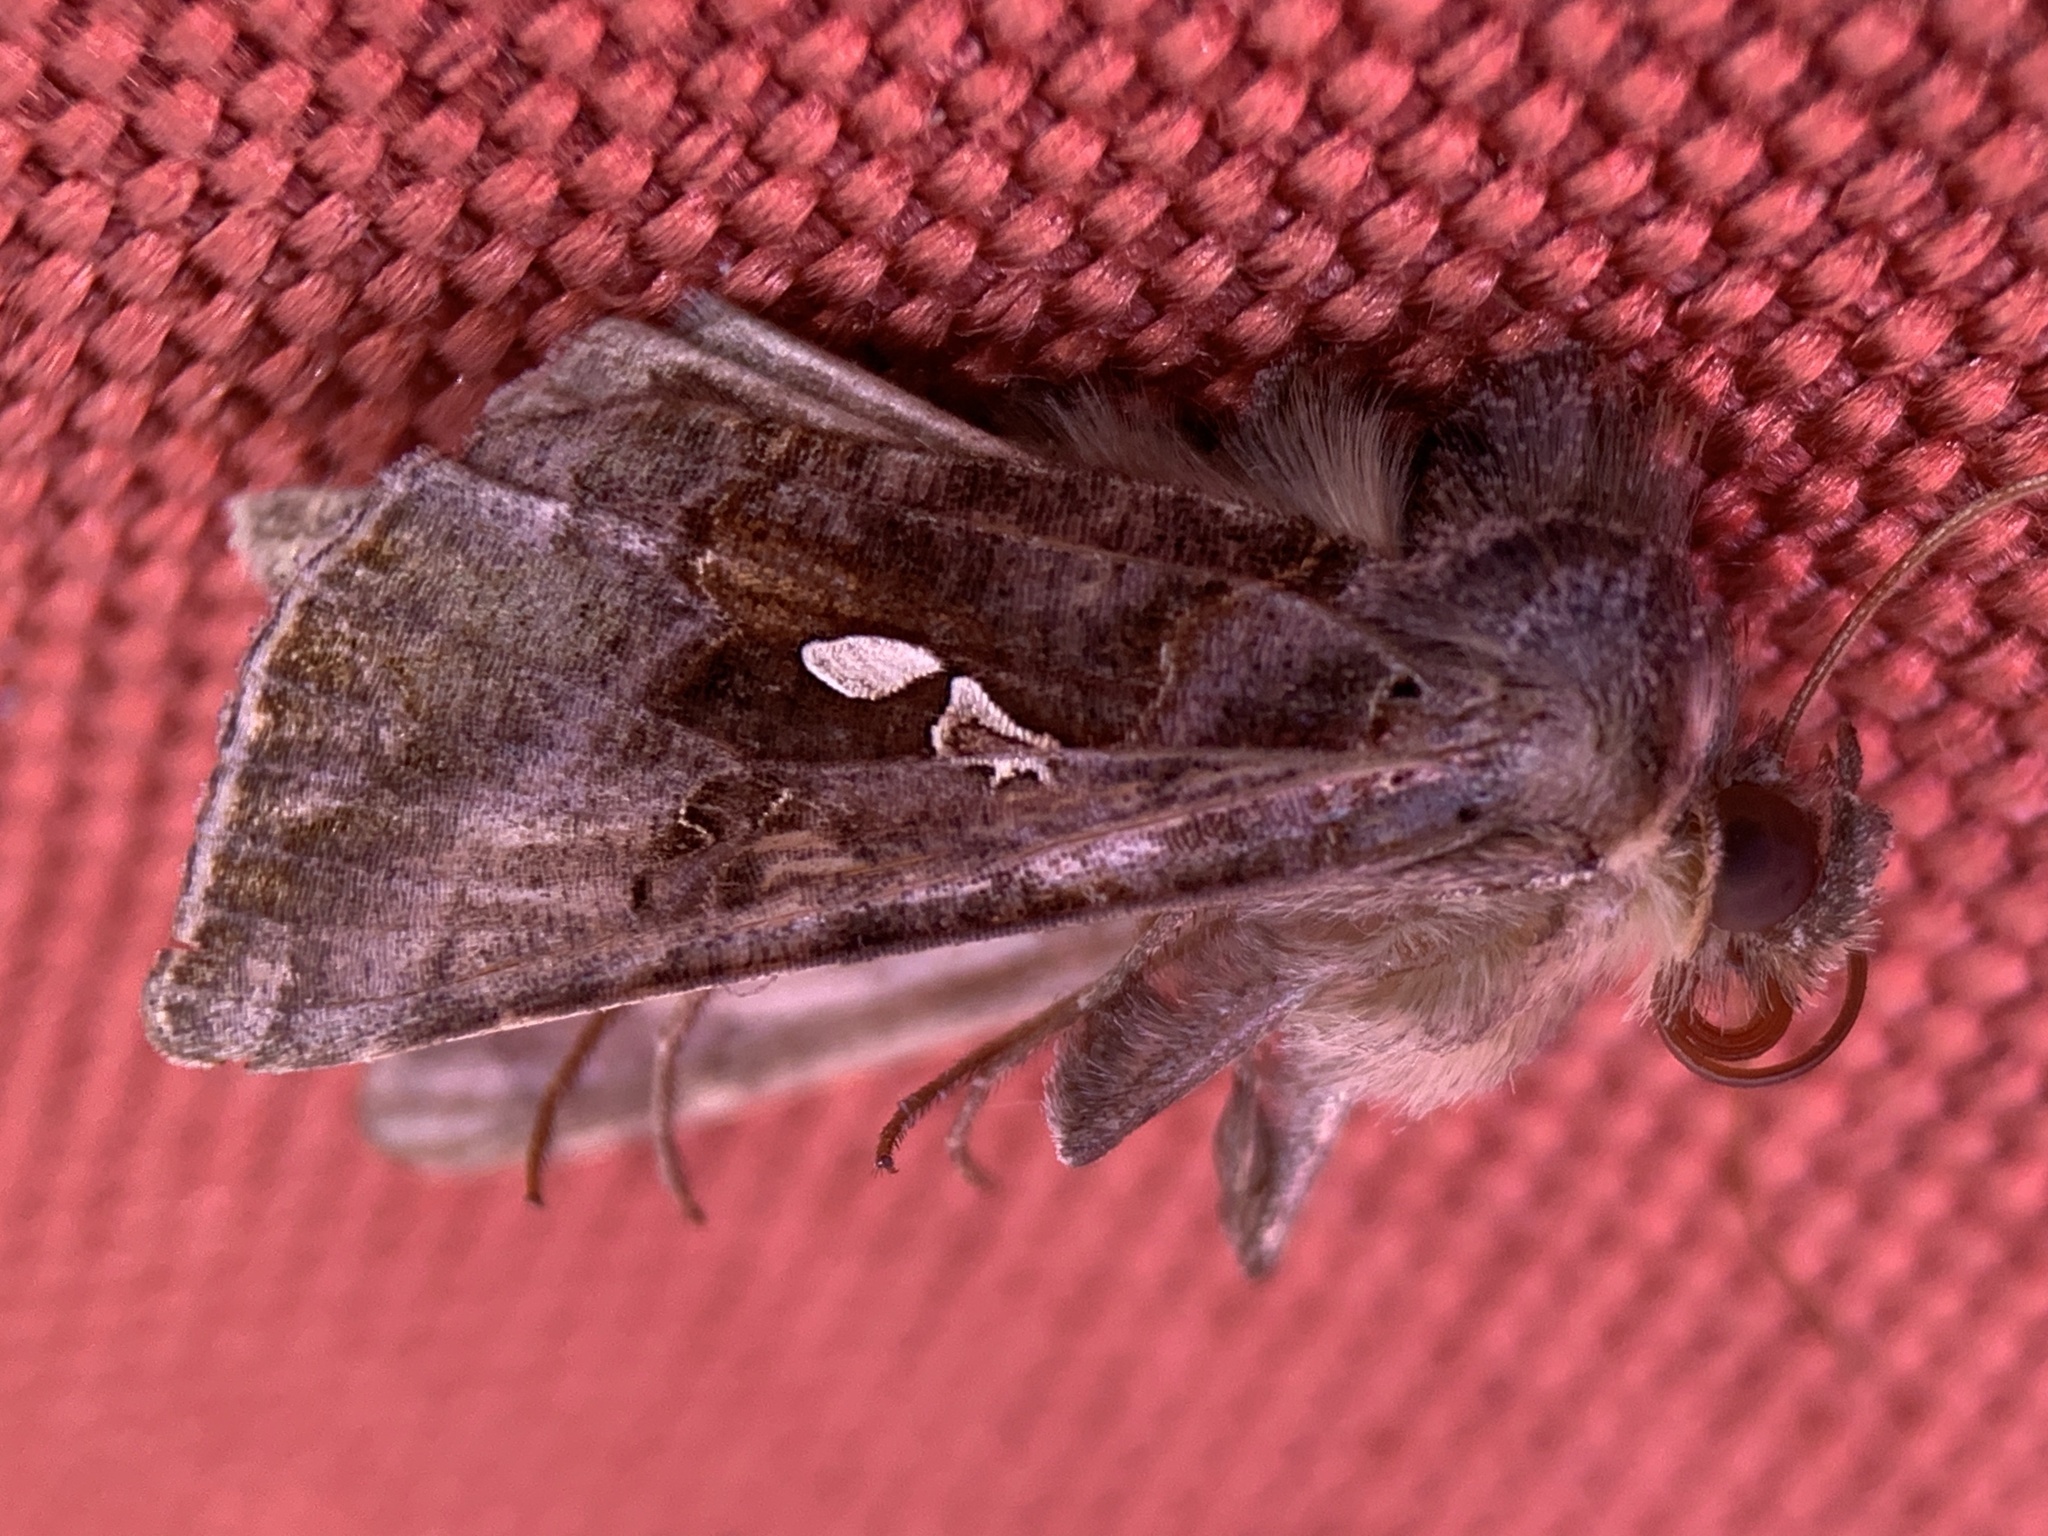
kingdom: Animalia
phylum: Arthropoda
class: Insecta
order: Lepidoptera
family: Noctuidae
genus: Autographa
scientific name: Autographa precationis
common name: Common looper moth
